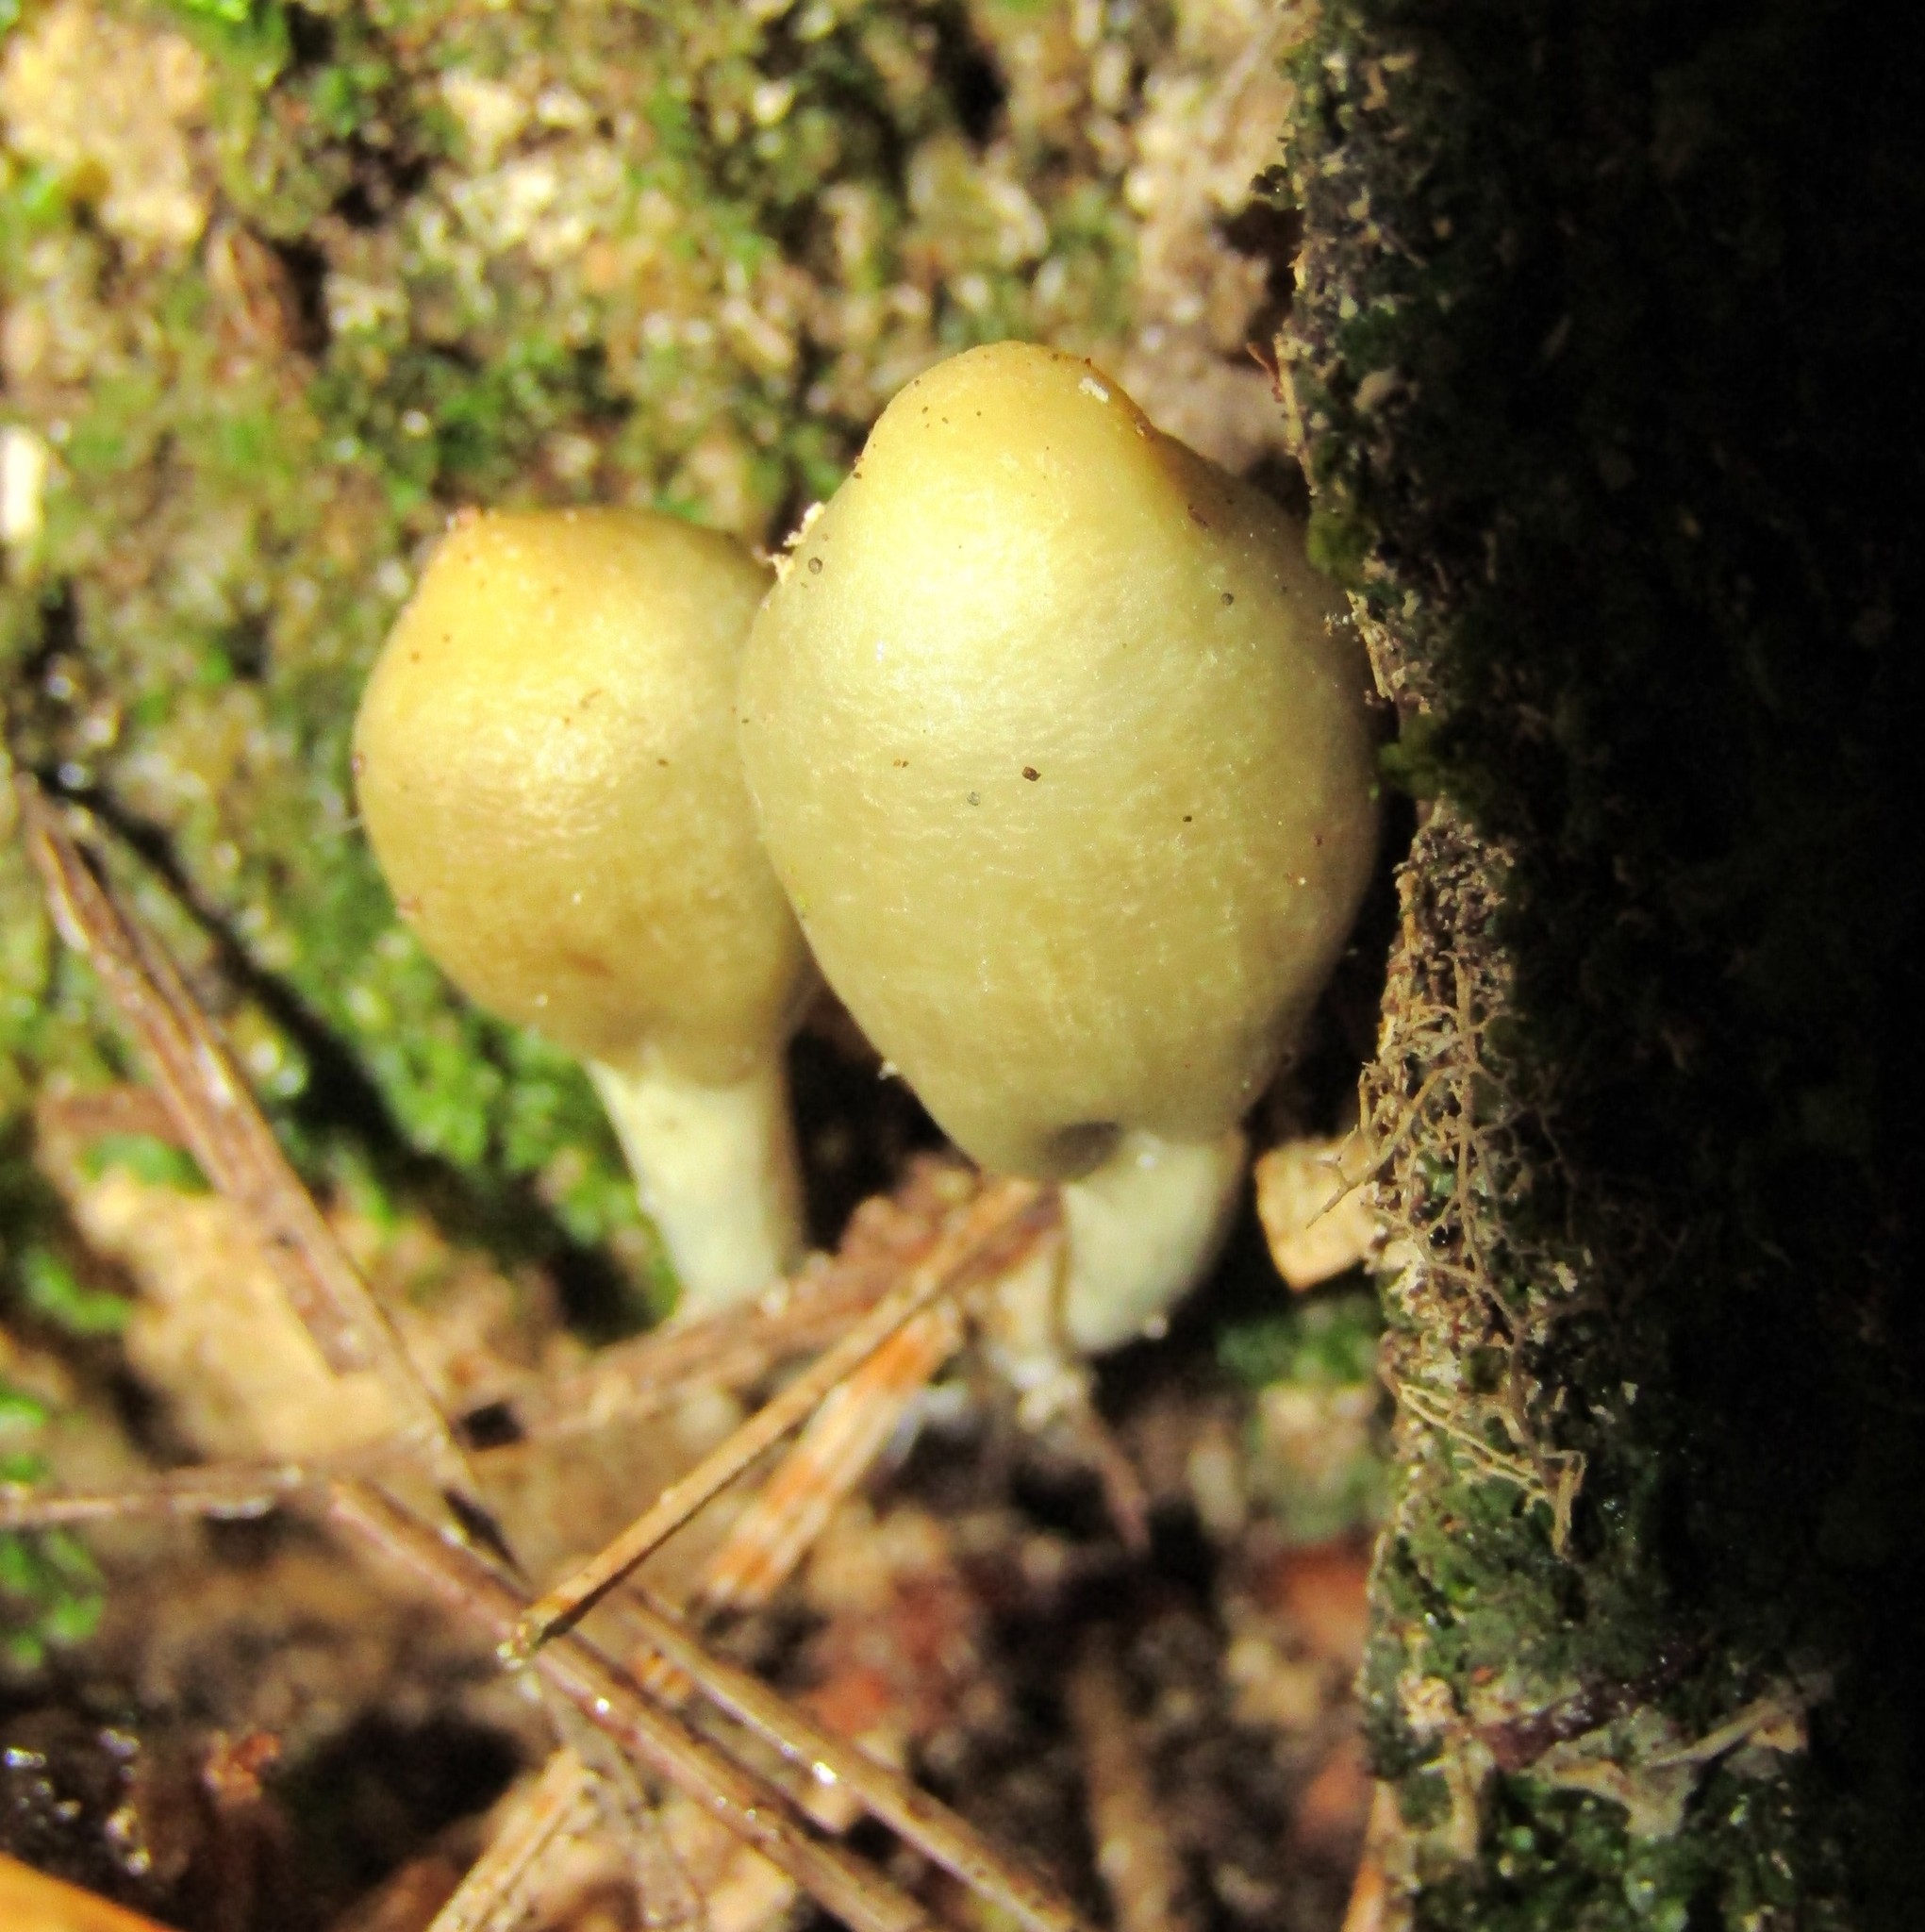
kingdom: Fungi
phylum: Basidiomycota
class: Agaricomycetes
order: Agaricales
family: Hymenogastraceae
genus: Psilocybe
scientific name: Psilocybe weraroa
